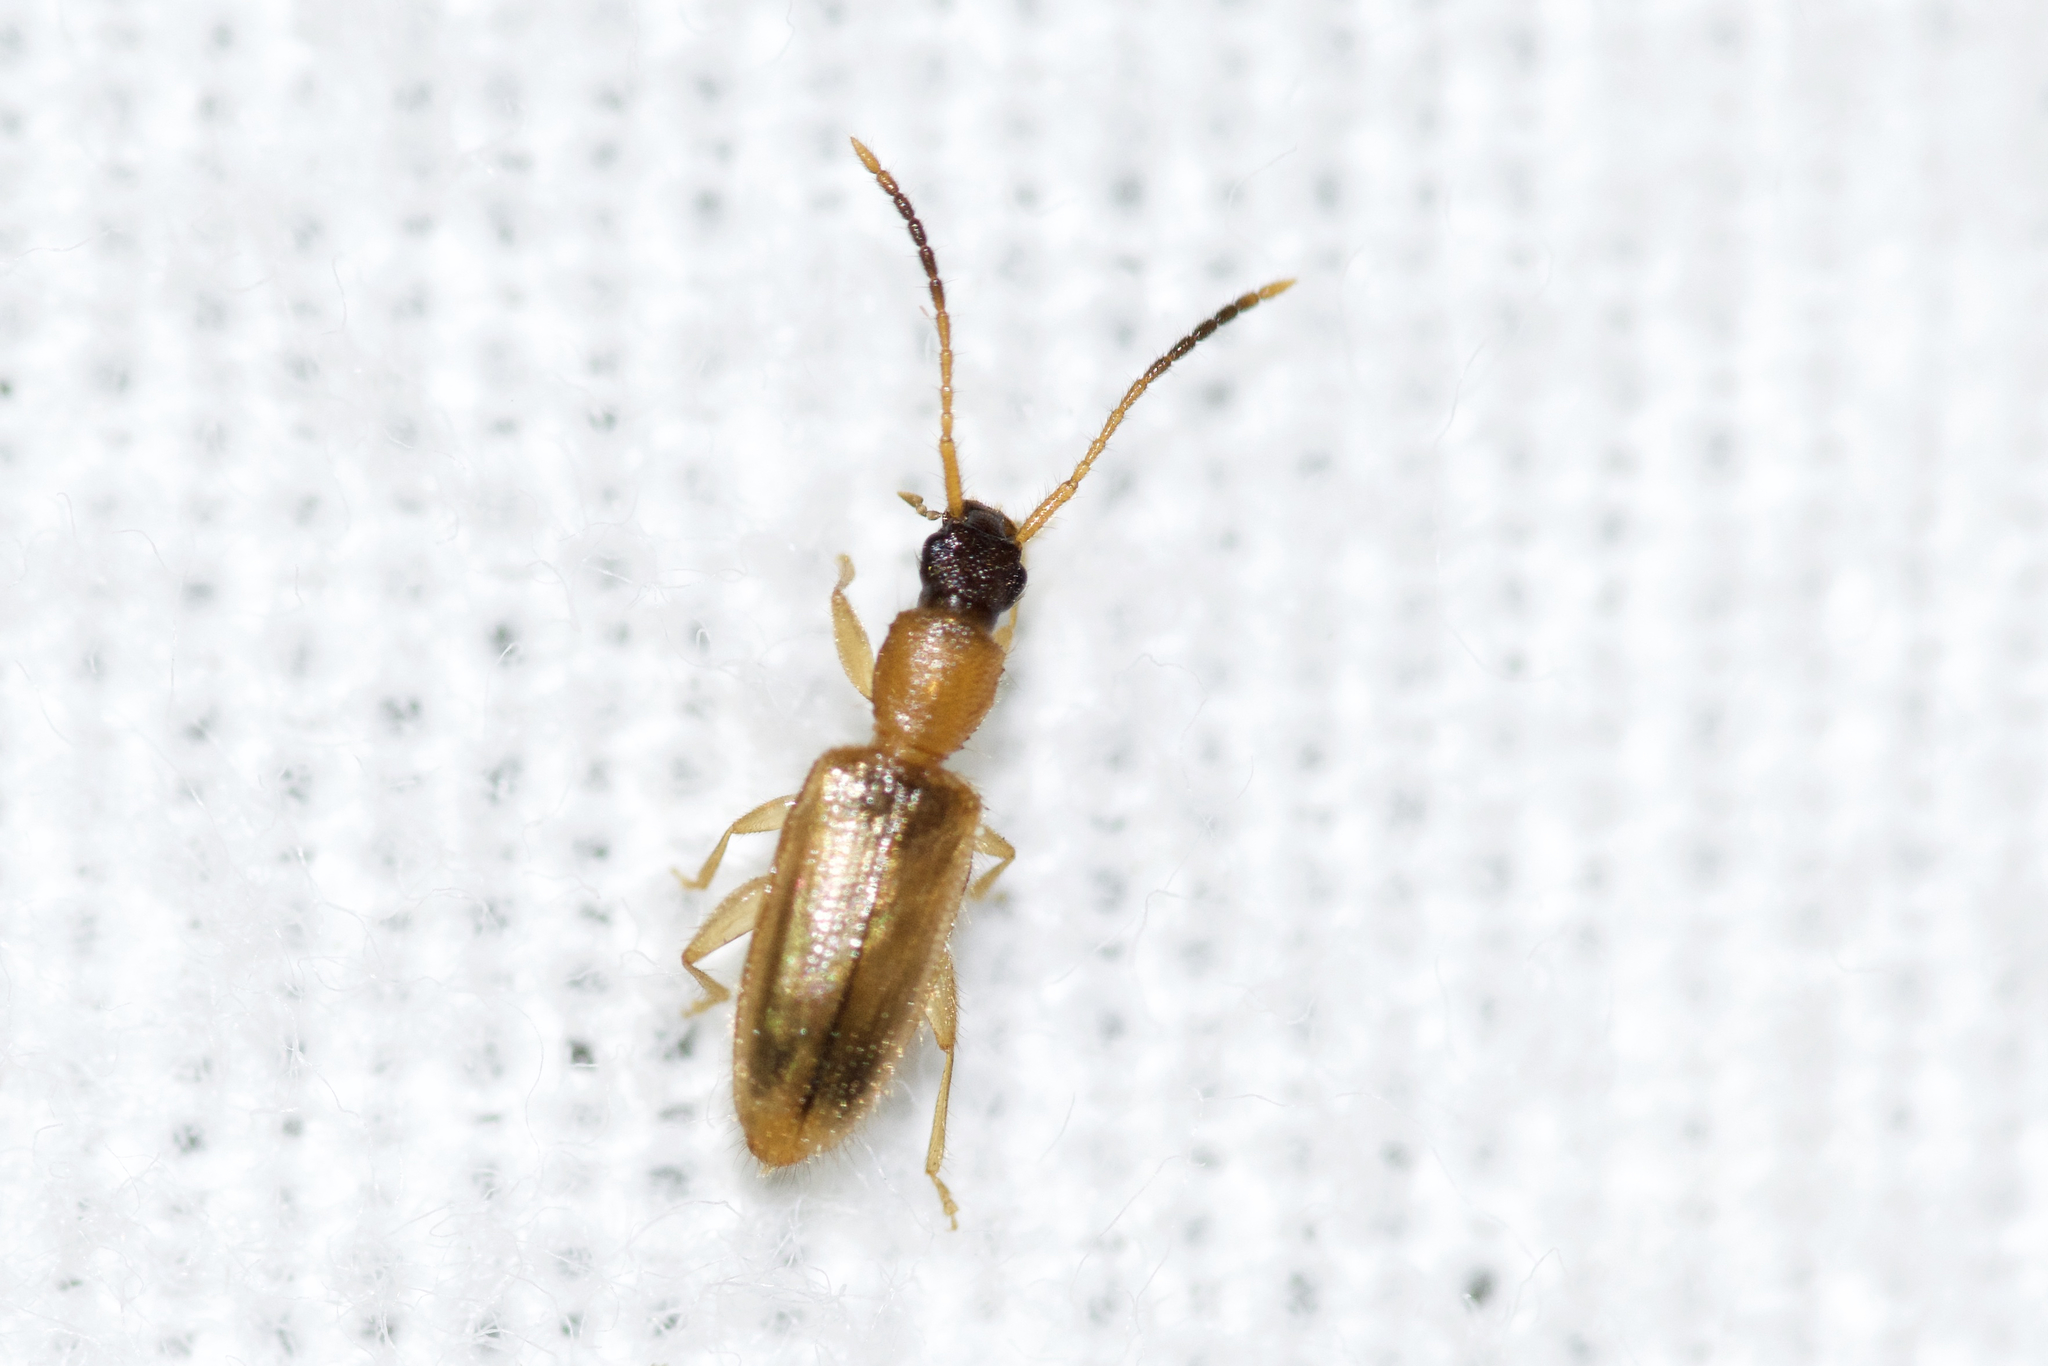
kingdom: Animalia
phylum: Arthropoda
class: Insecta
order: Coleoptera
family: Silvanidae
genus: Telephanus
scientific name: Telephanus velox
